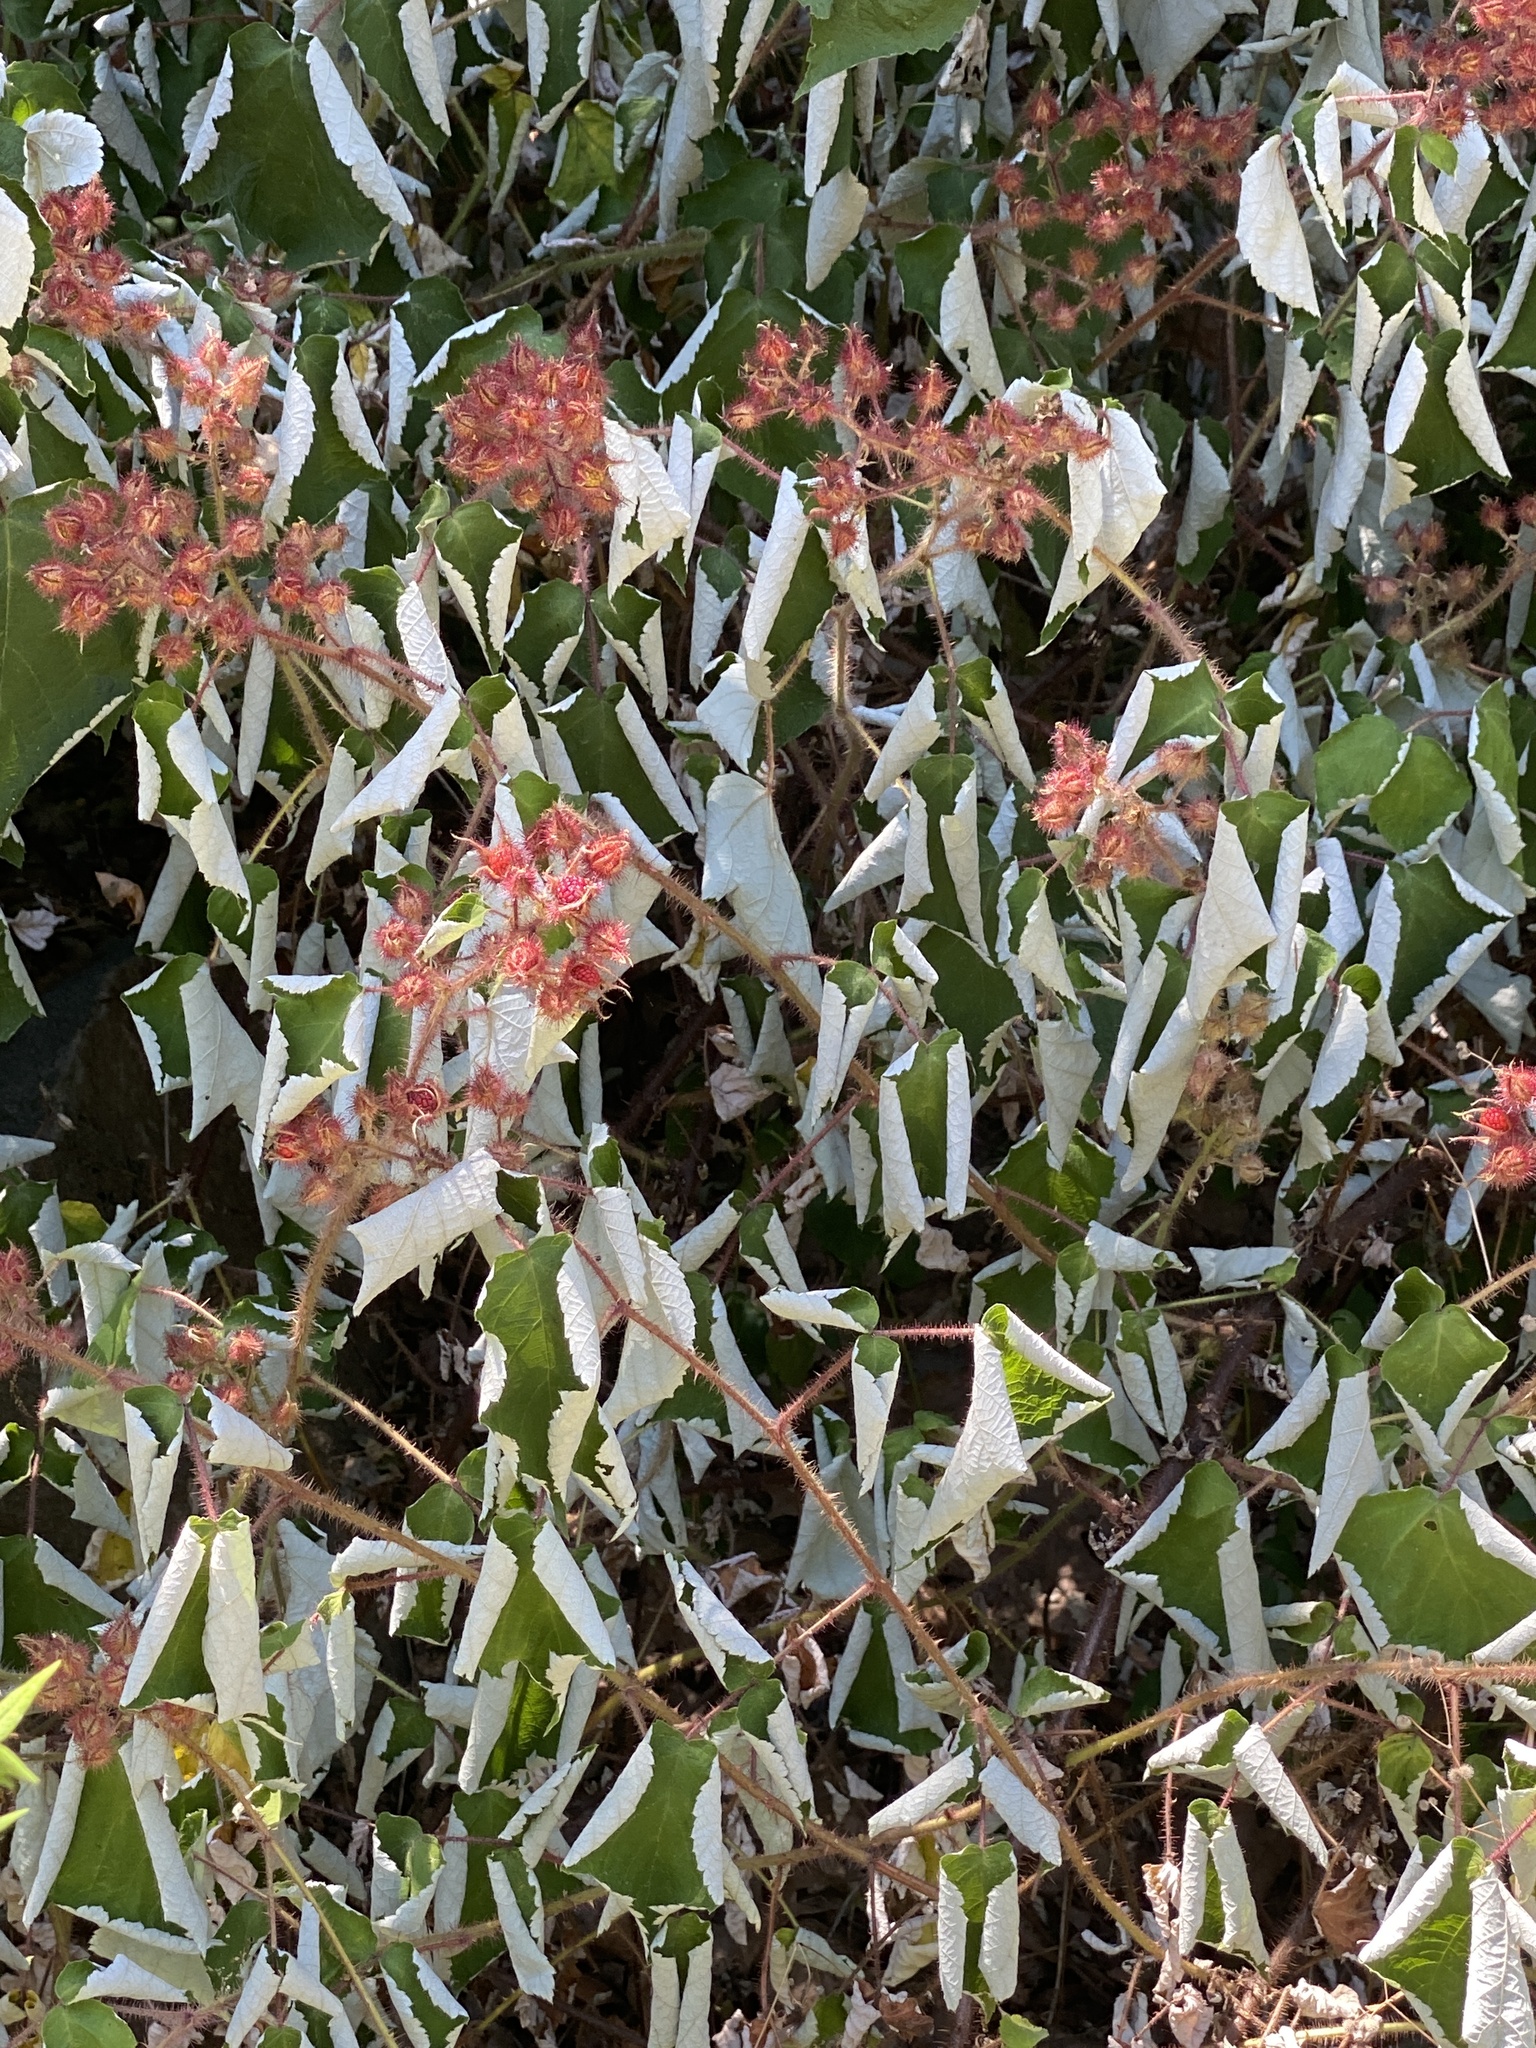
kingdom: Plantae
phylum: Tracheophyta
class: Magnoliopsida
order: Rosales
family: Rosaceae
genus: Rubus
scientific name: Rubus phoenicolasius
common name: Japanese wineberry
